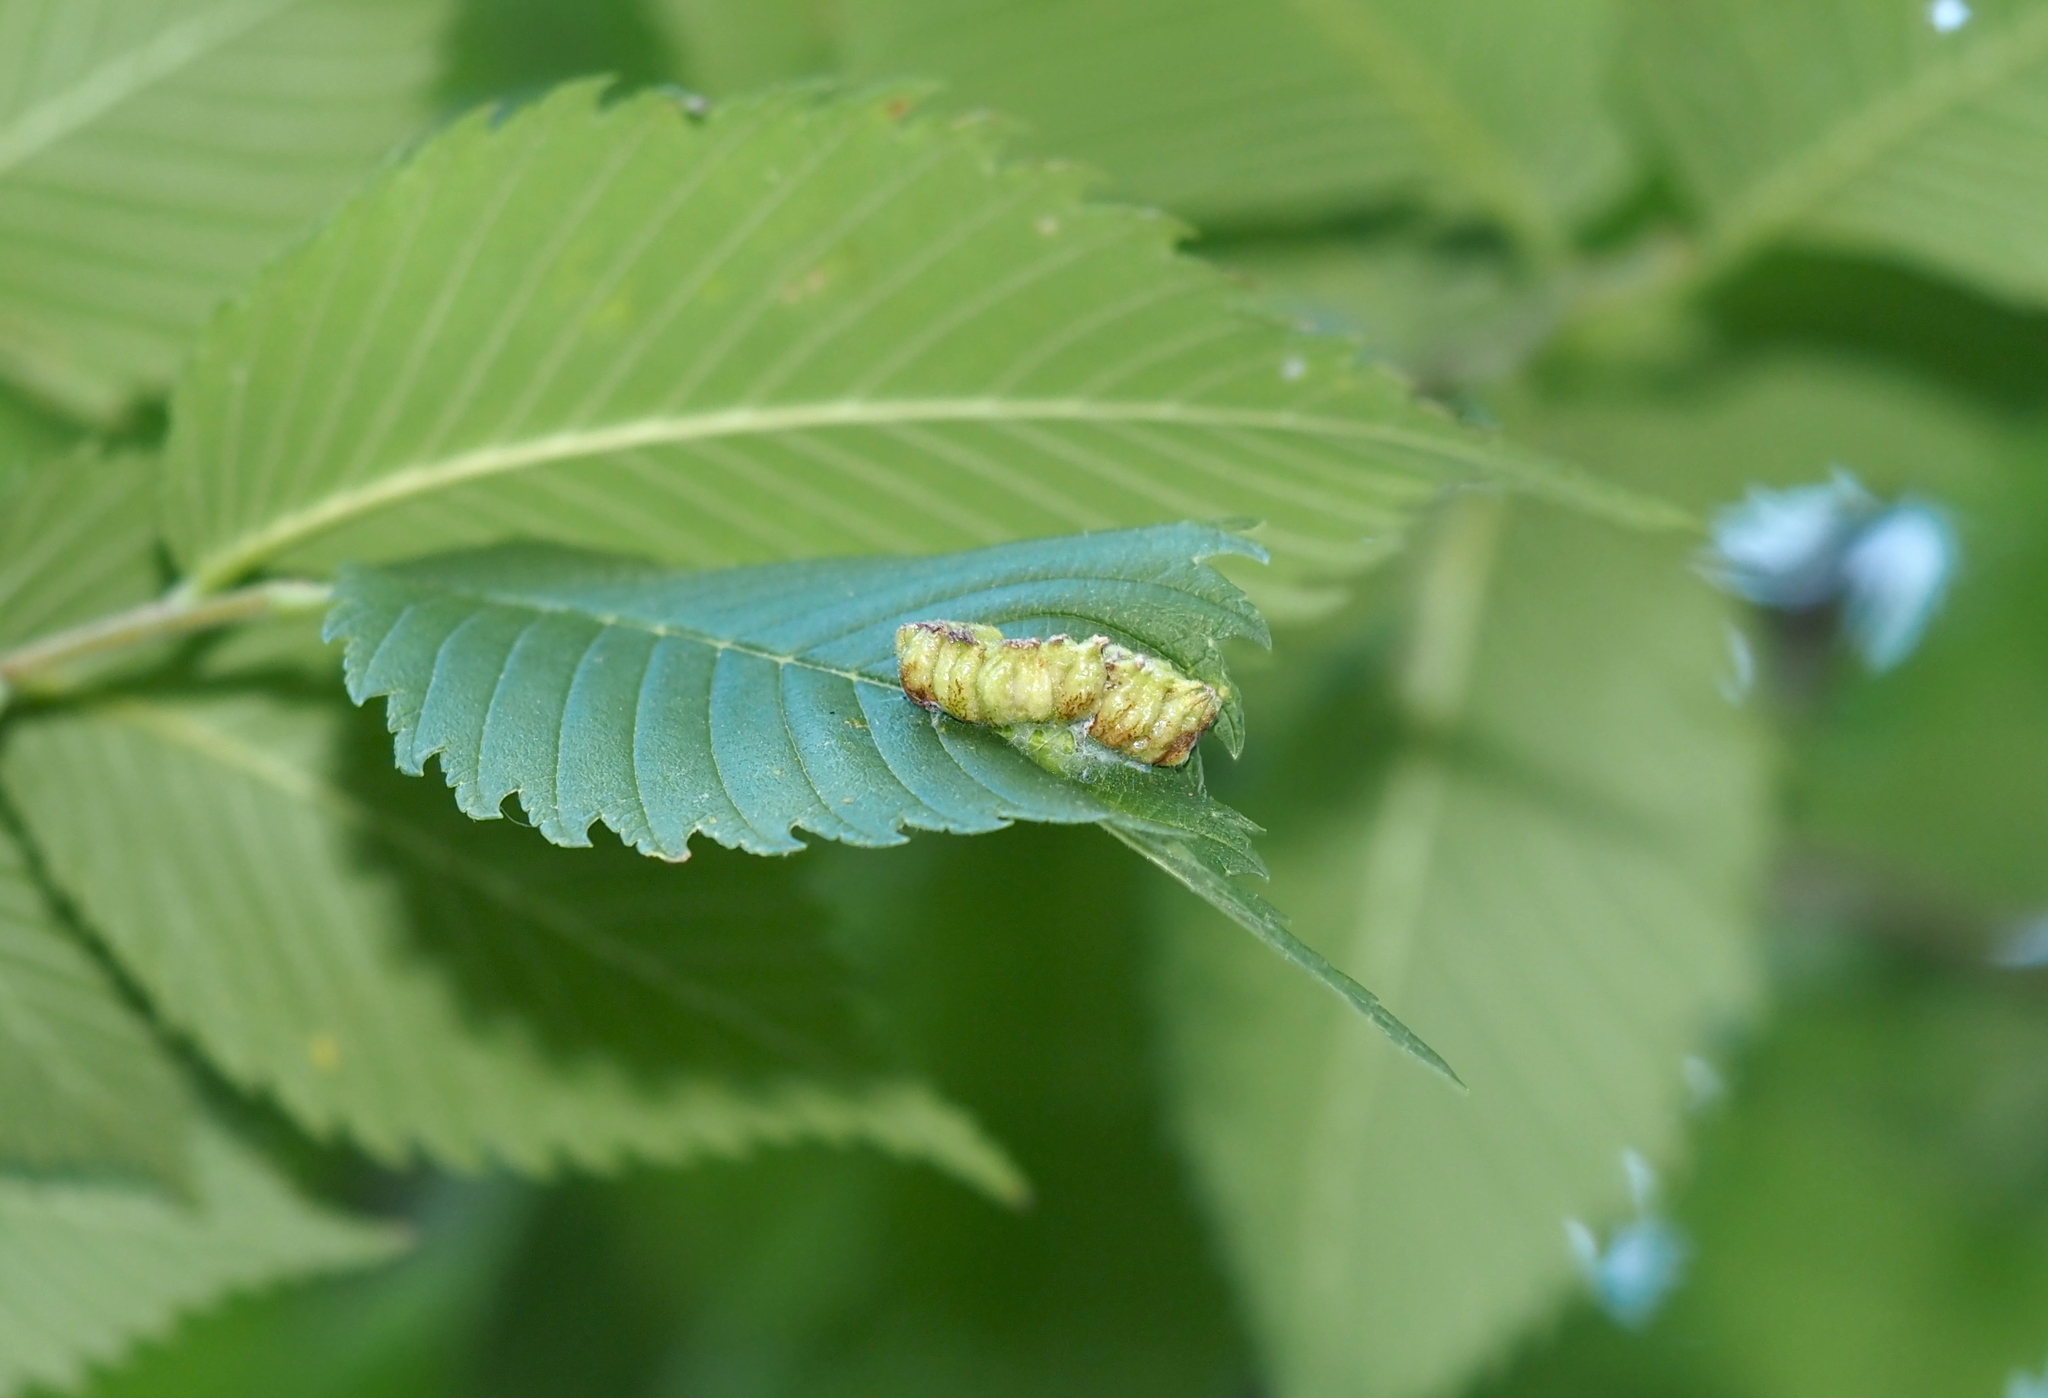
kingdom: Animalia
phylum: Arthropoda
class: Insecta
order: Hemiptera
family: Aphididae
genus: Colopha
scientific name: Colopha ulmicola
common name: Elm cockscombgall aphid
